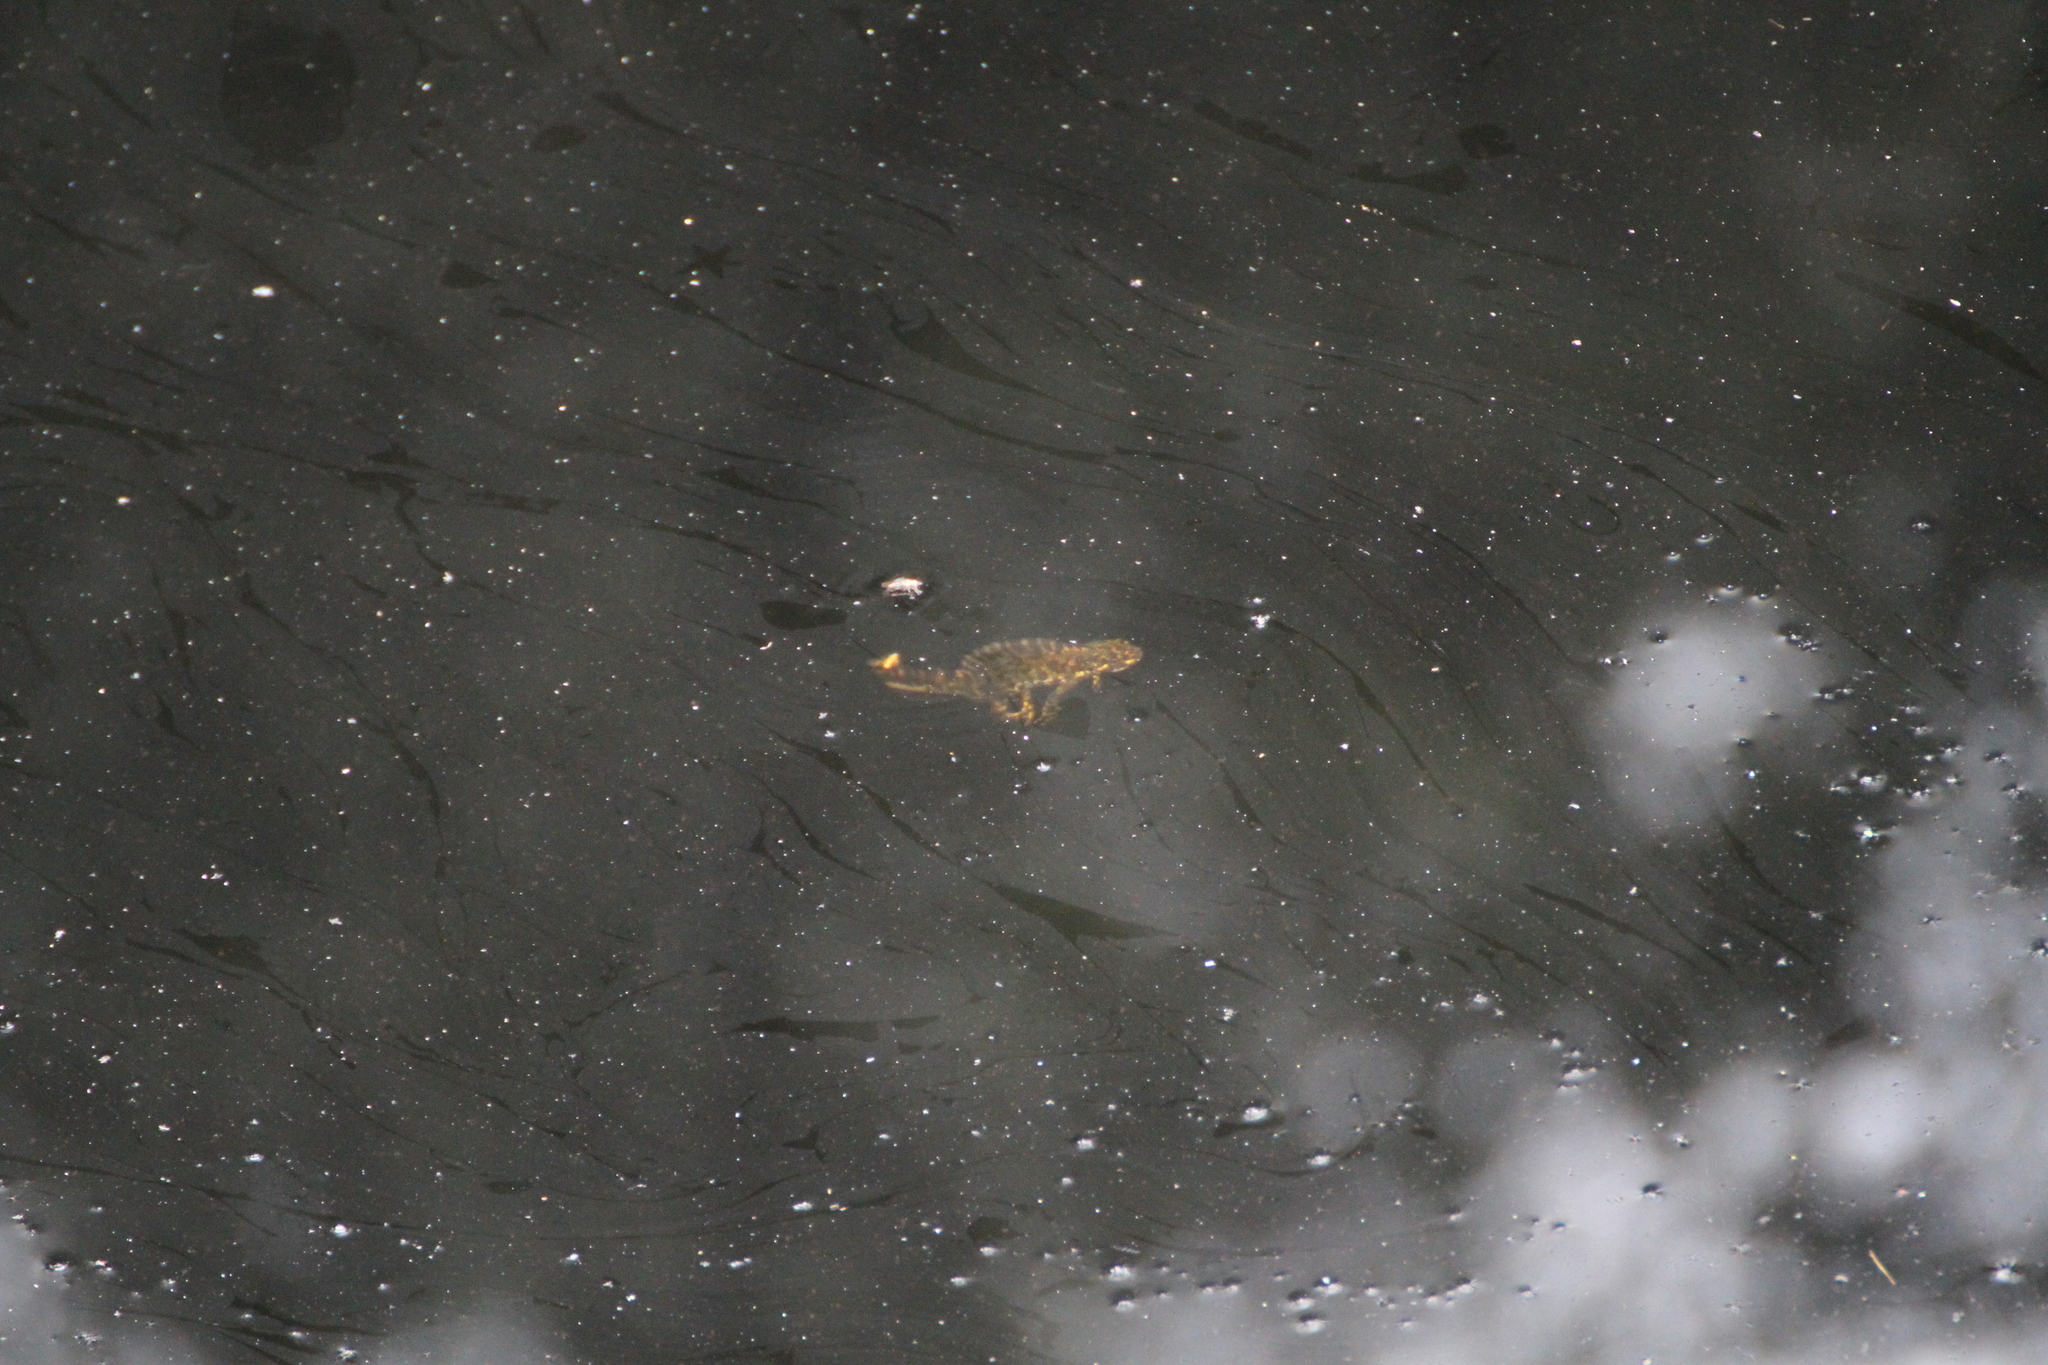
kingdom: Animalia
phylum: Chordata
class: Amphibia
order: Caudata
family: Salamandridae
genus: Triturus
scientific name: Triturus marmoratus
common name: Marbled newt
